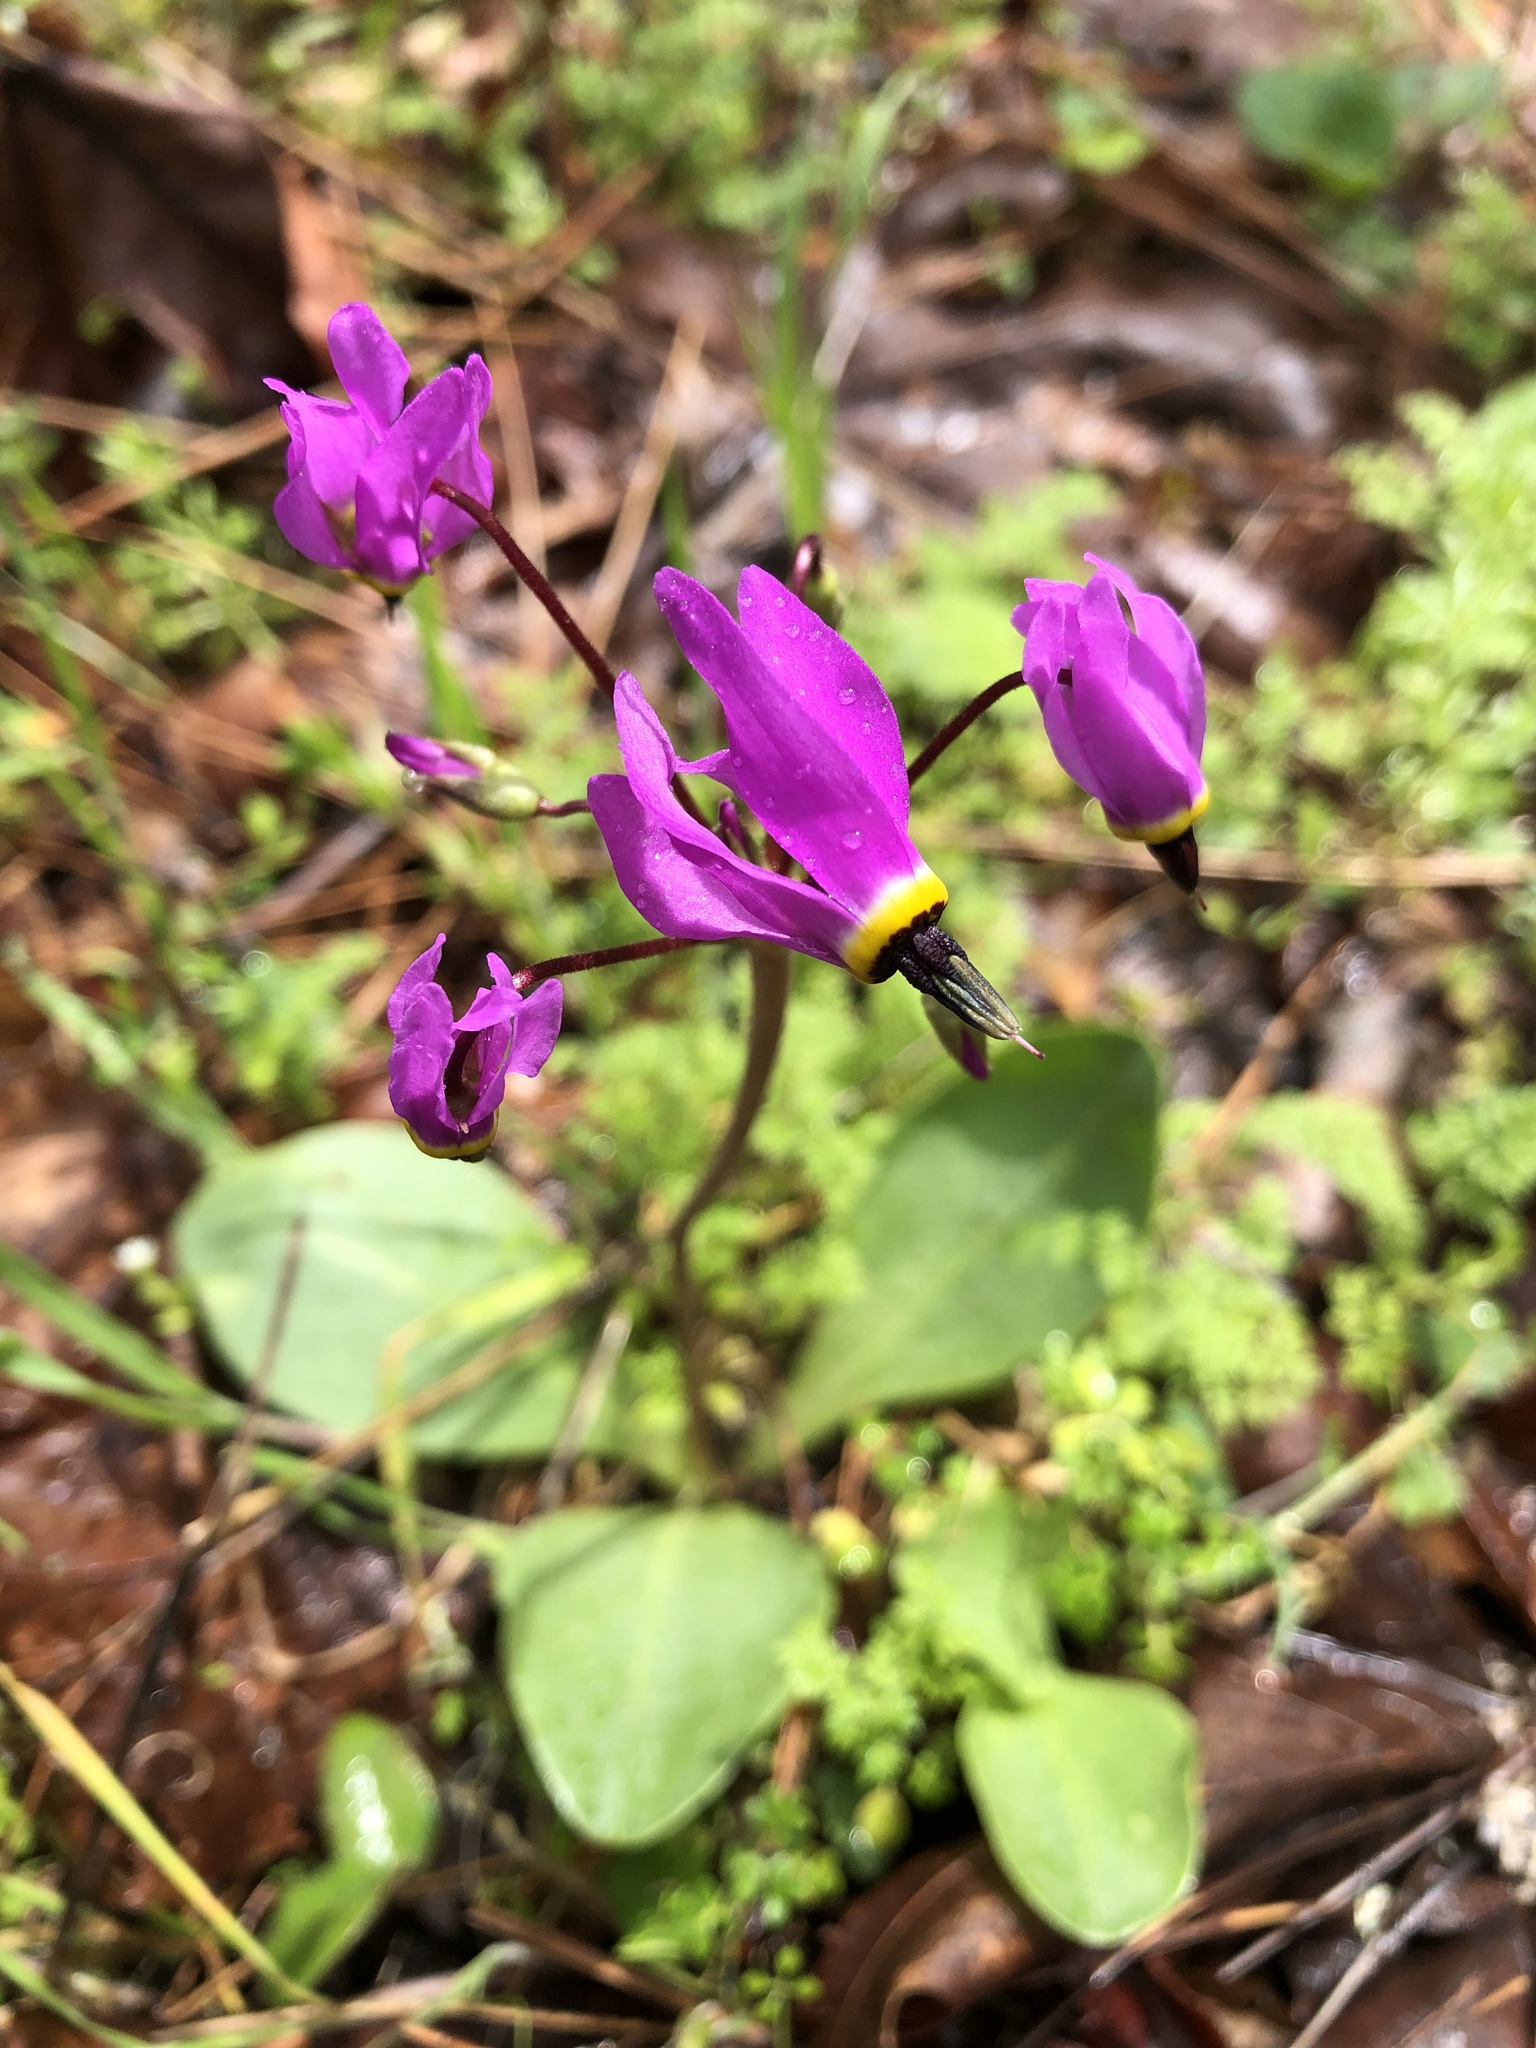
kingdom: Plantae
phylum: Tracheophyta
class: Magnoliopsida
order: Ericales
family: Primulaceae
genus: Dodecatheon
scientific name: Dodecatheon hendersonii
